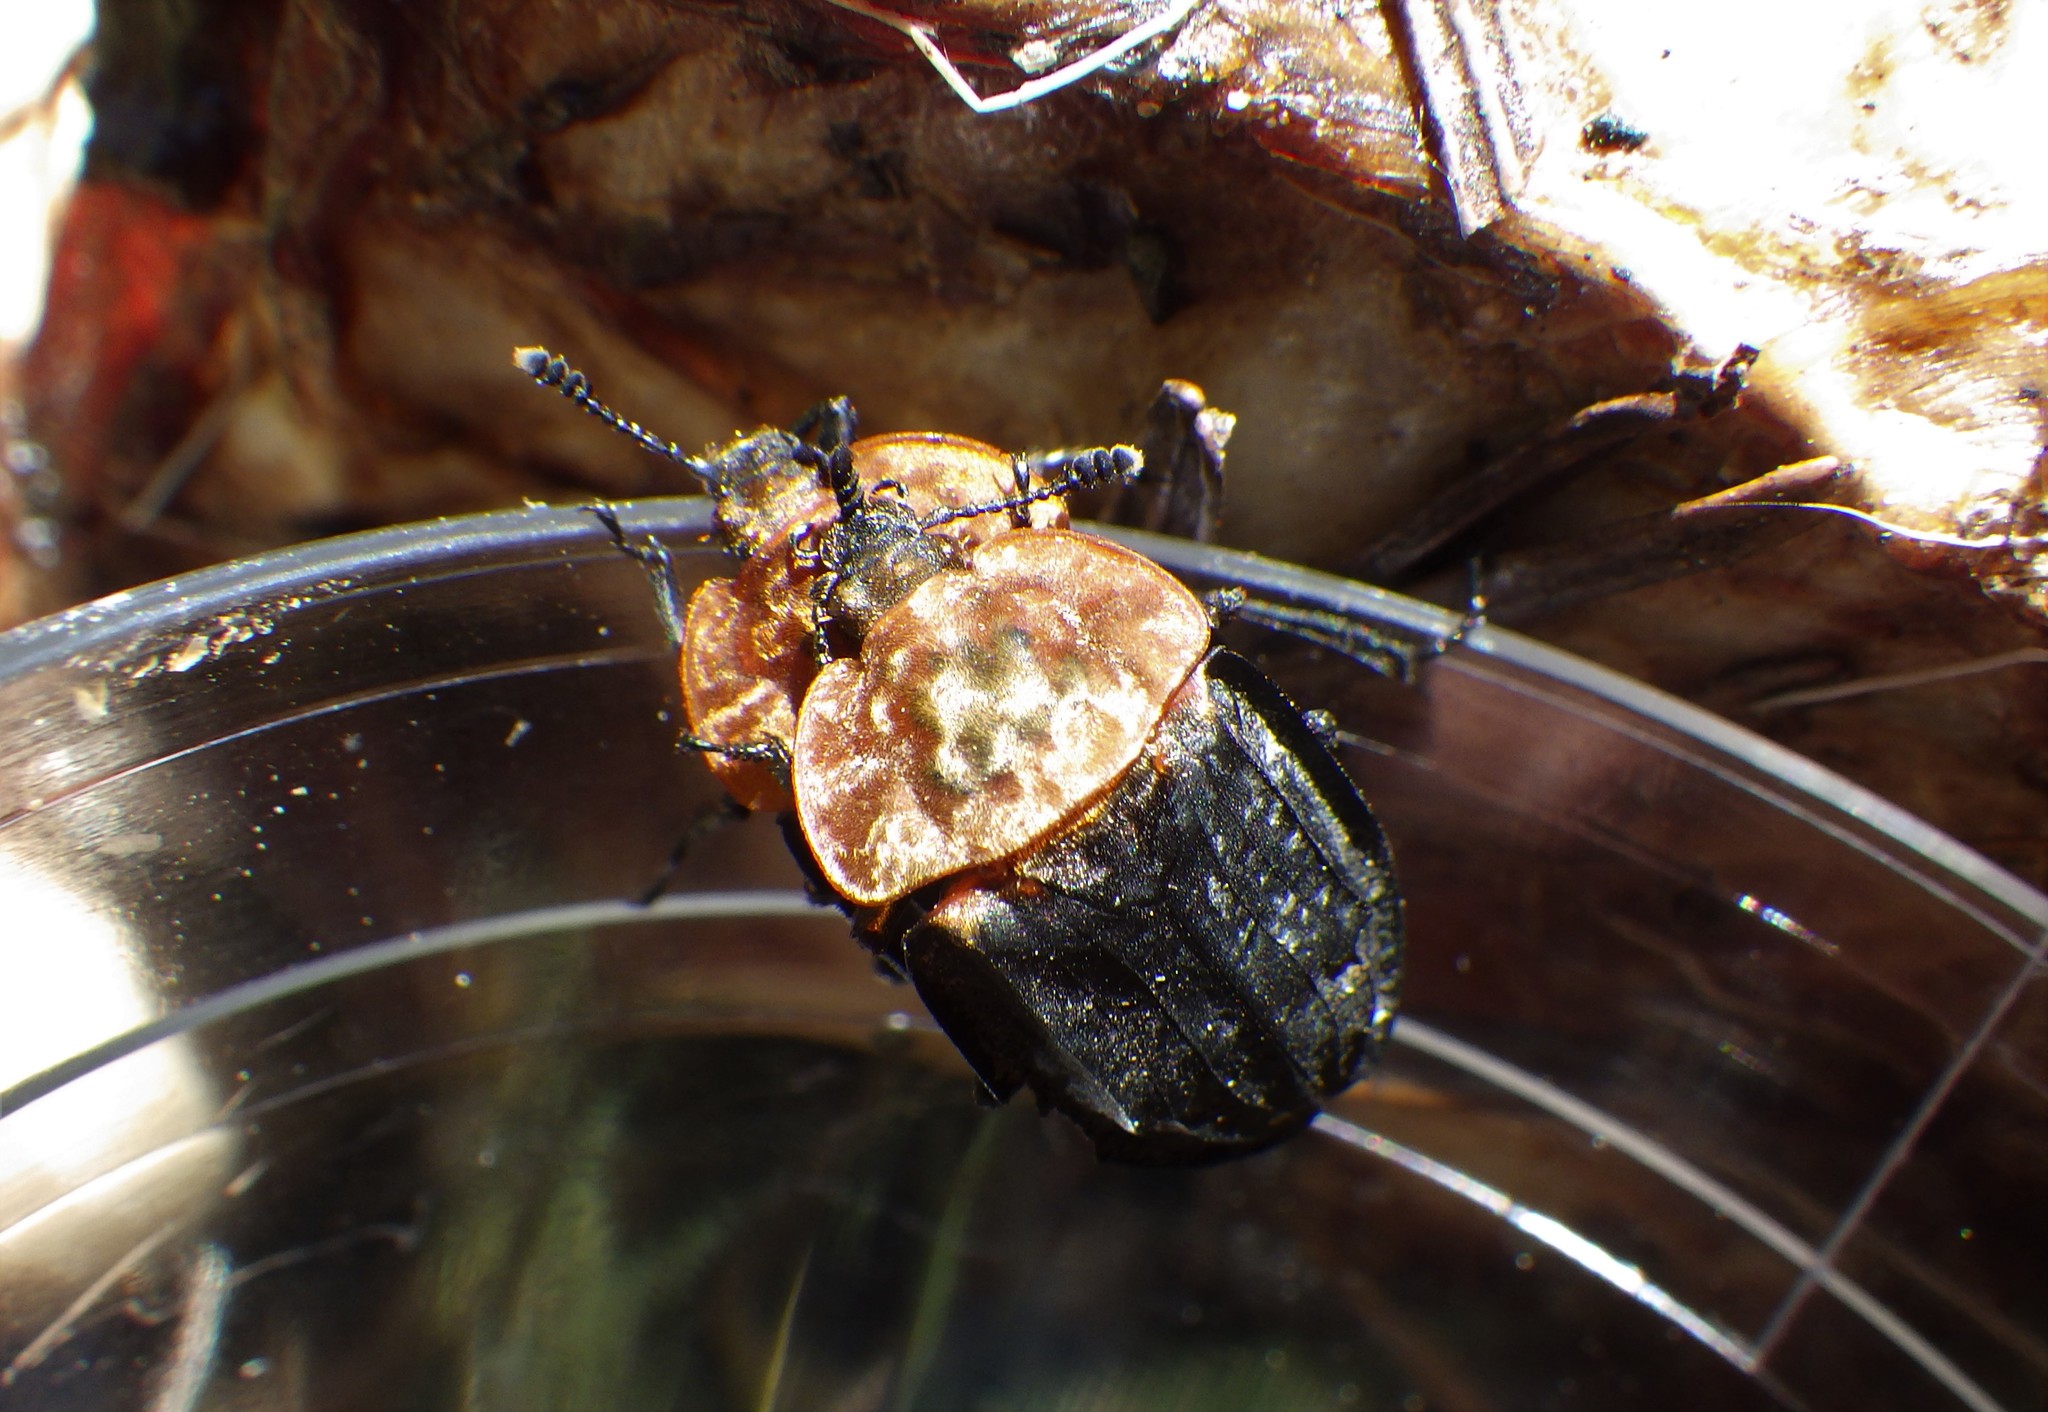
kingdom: Animalia
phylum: Arthropoda
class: Insecta
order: Coleoptera
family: Staphylinidae
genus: Oiceoptoma
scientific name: Oiceoptoma thoracicum
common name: Red-breasted carrion beetle
